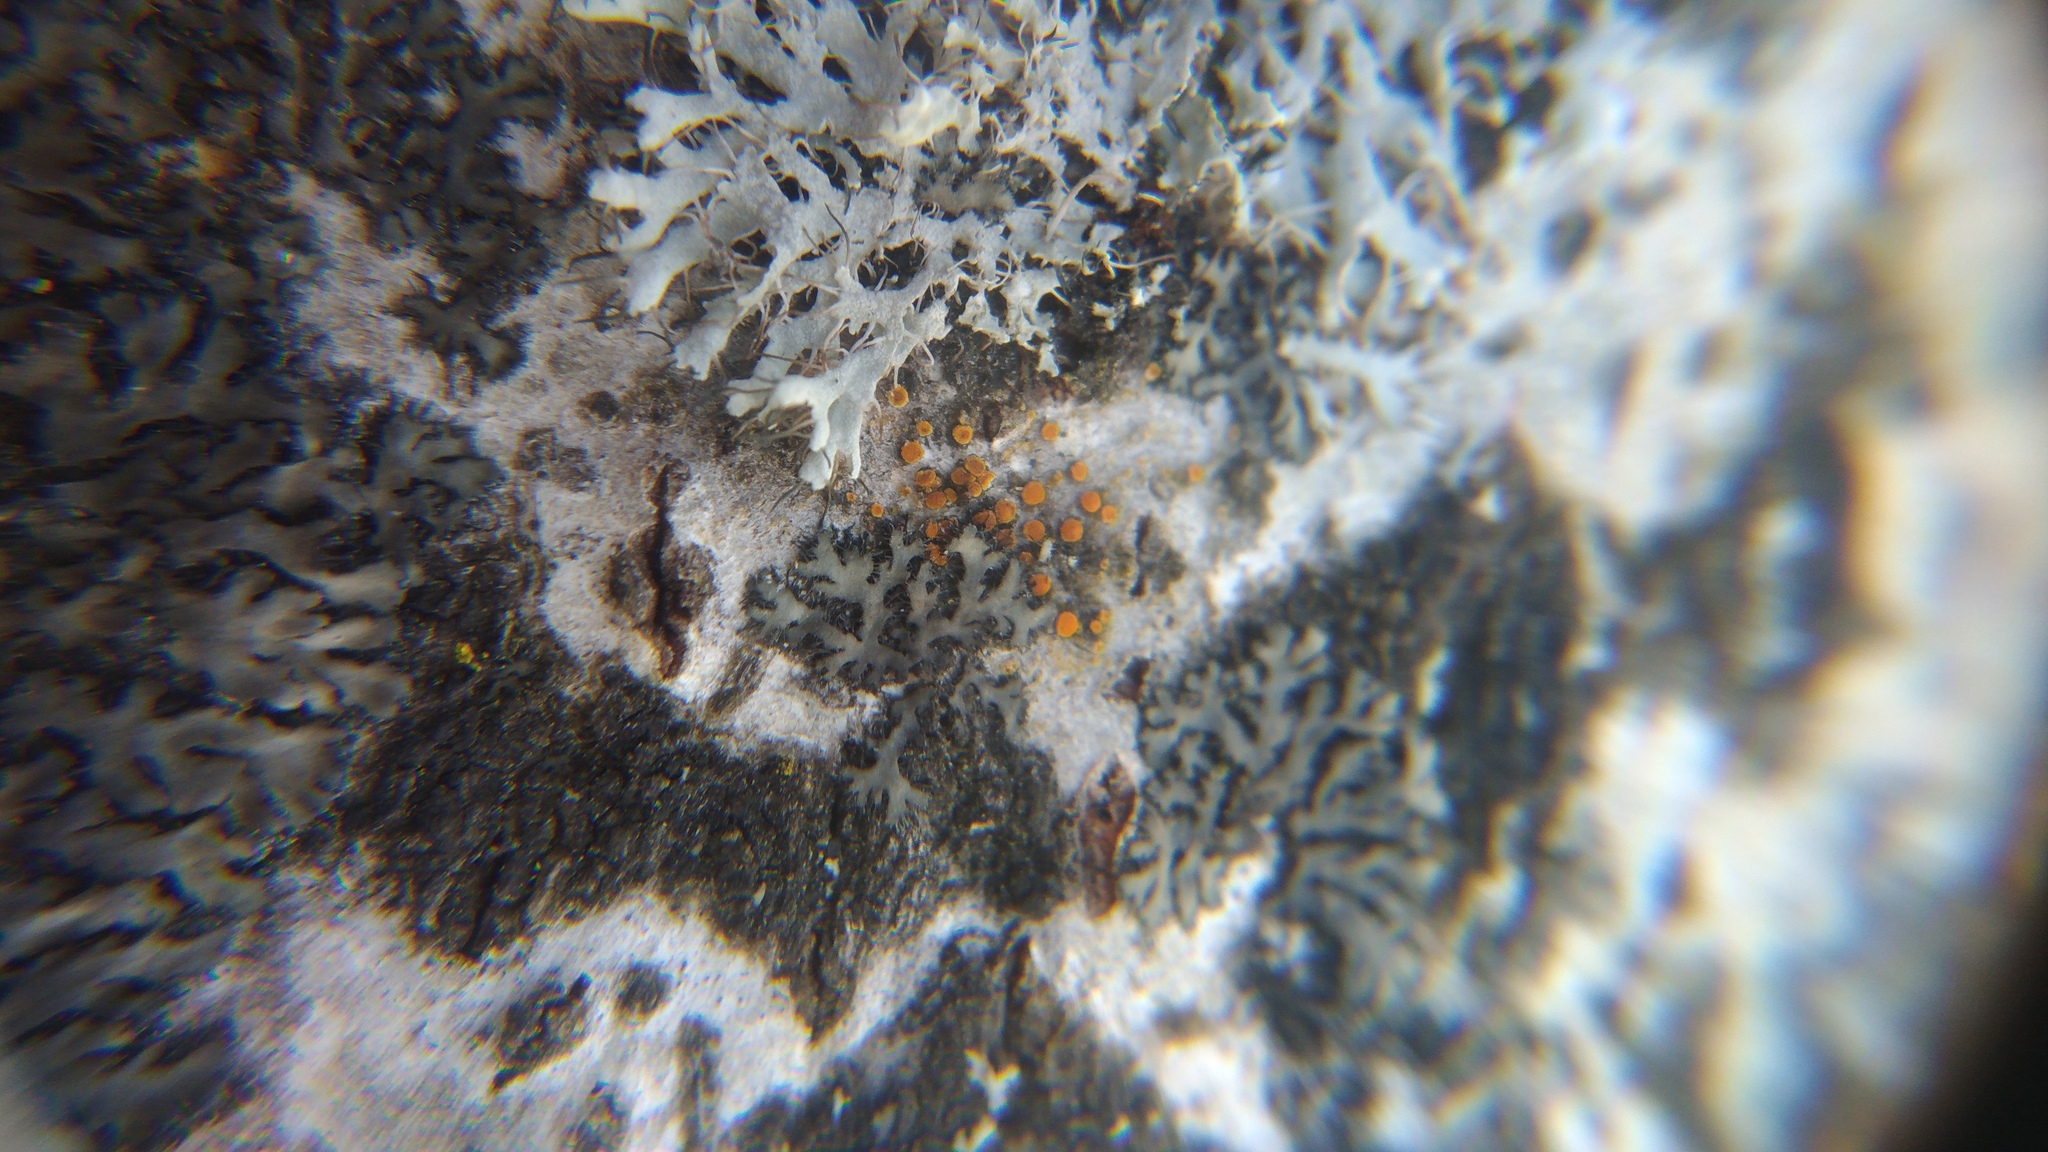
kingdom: Fungi
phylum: Ascomycota
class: Lecanoromycetes
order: Teloschistales
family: Teloschistaceae
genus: Athallia
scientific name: Athallia pyracea
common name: Flaming firedot lichen
